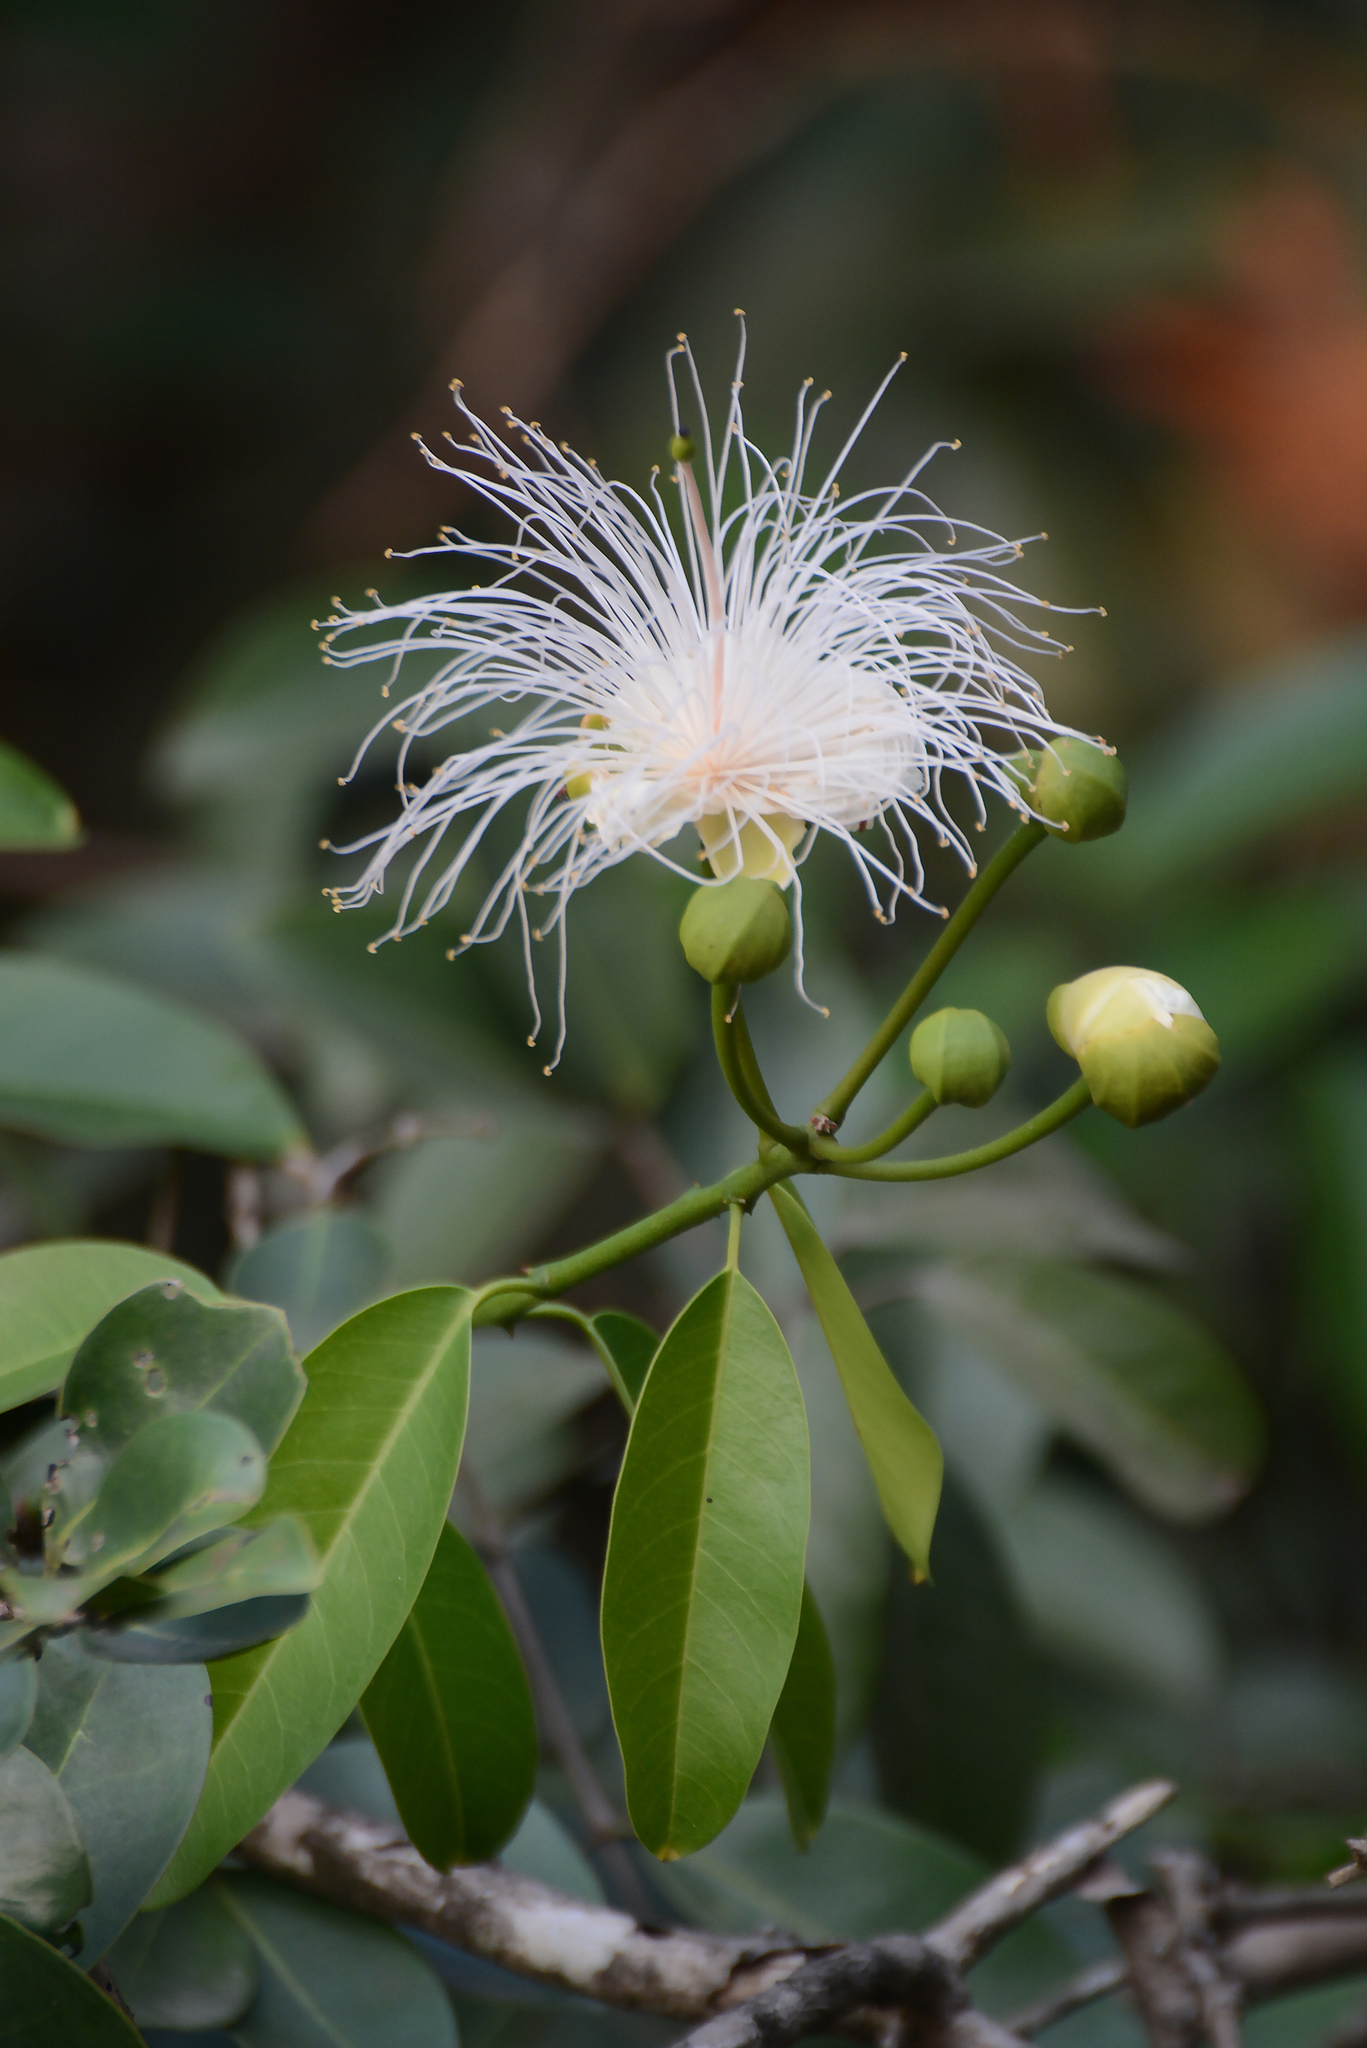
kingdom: Plantae
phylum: Tracheophyta
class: Magnoliopsida
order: Brassicales
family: Capparaceae
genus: Capparis
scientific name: Capparis moonii
